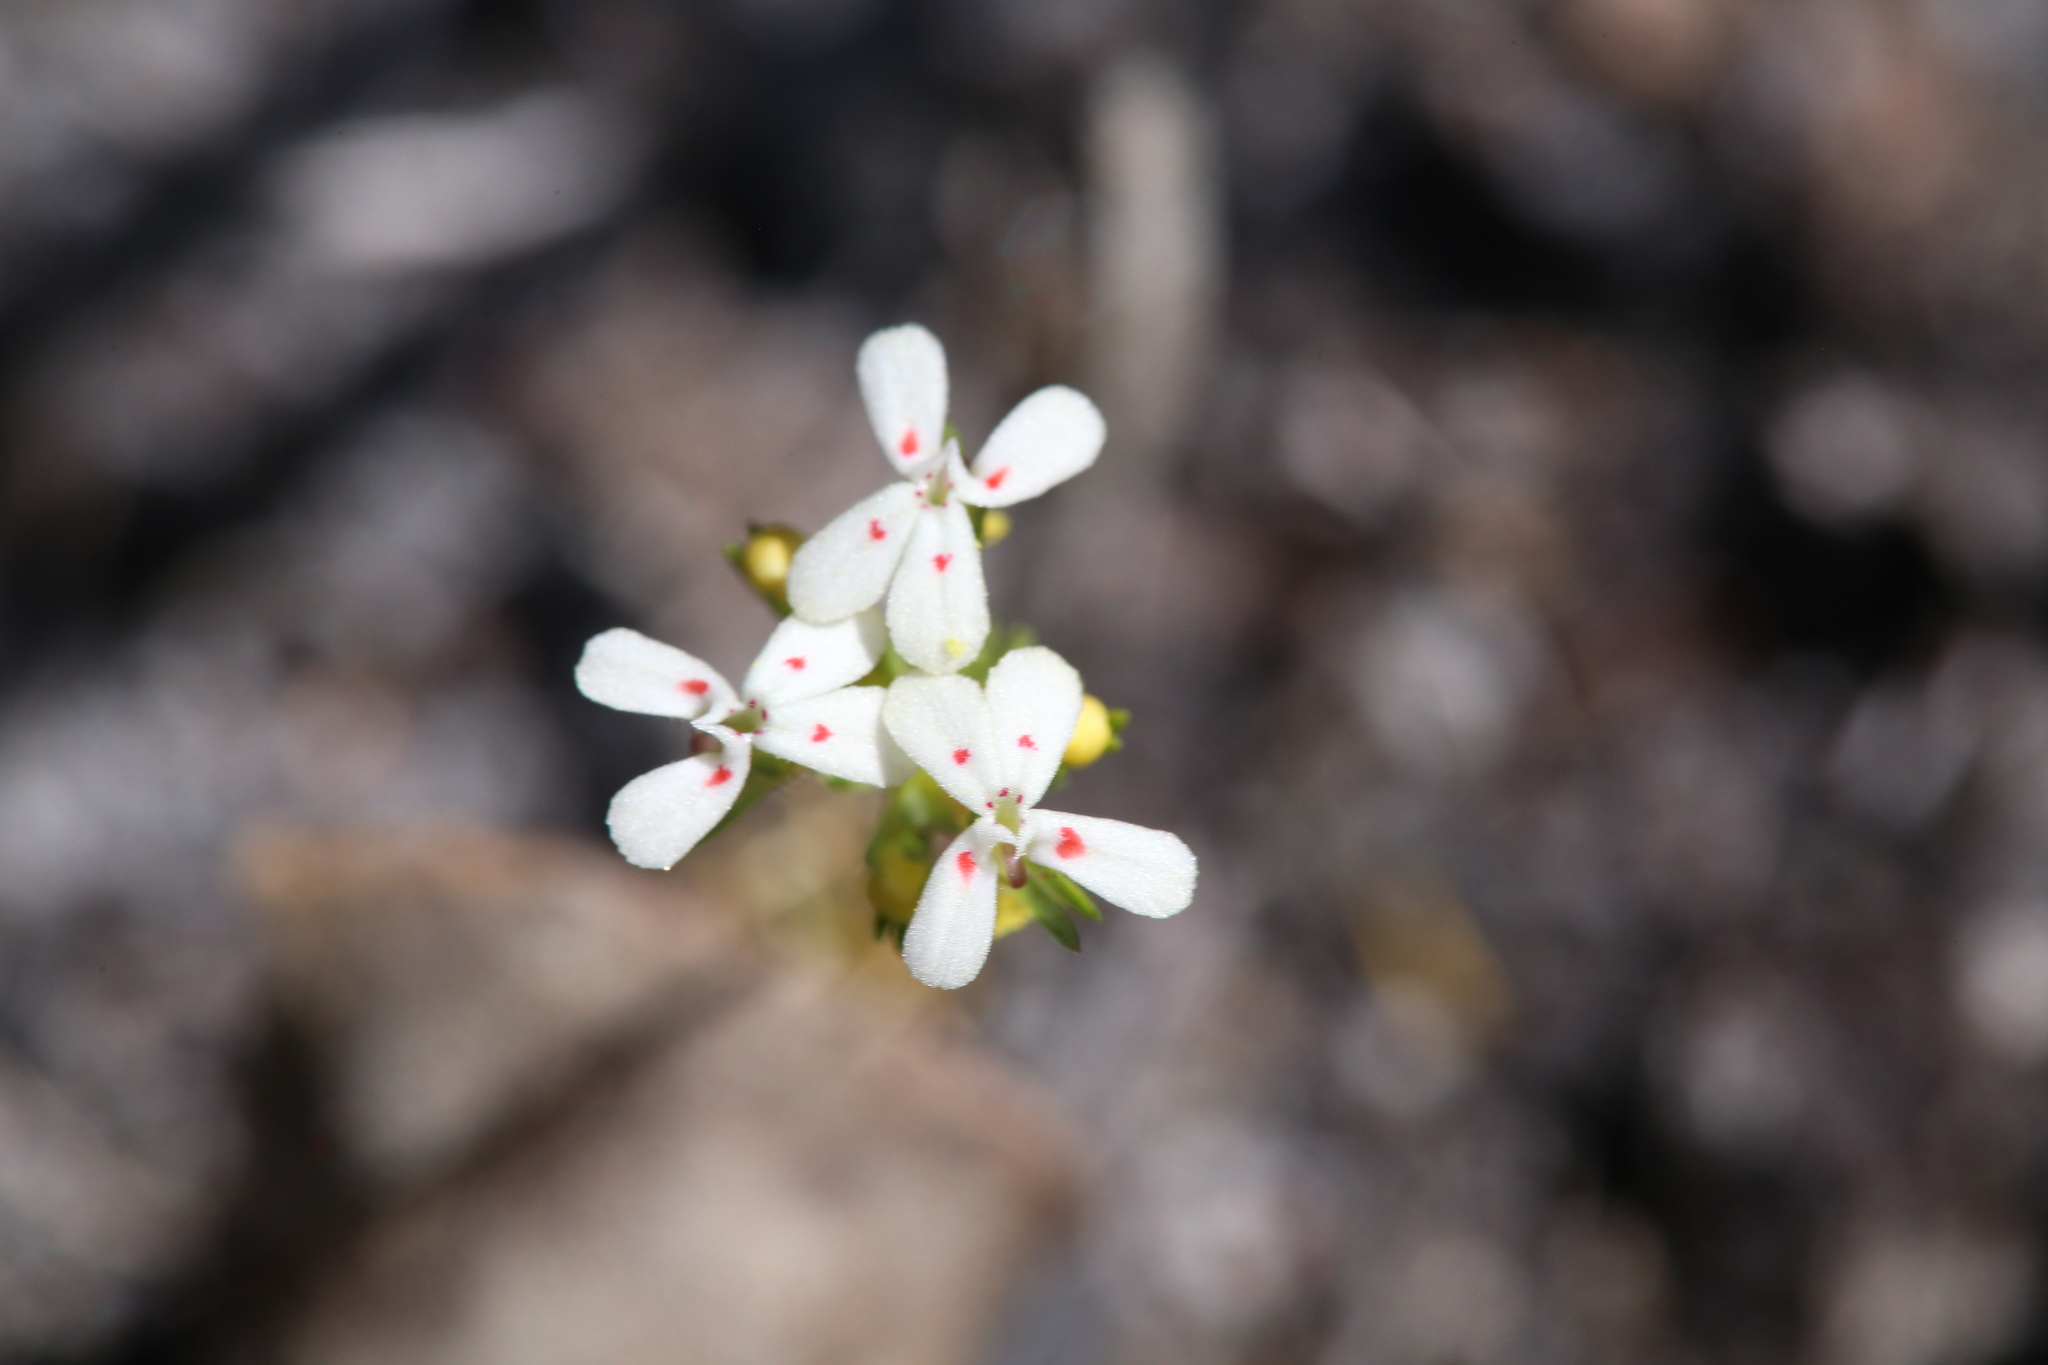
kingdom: Plantae
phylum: Tracheophyta
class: Magnoliopsida
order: Asterales
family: Stylidiaceae
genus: Stylidium
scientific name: Stylidium guttatum
